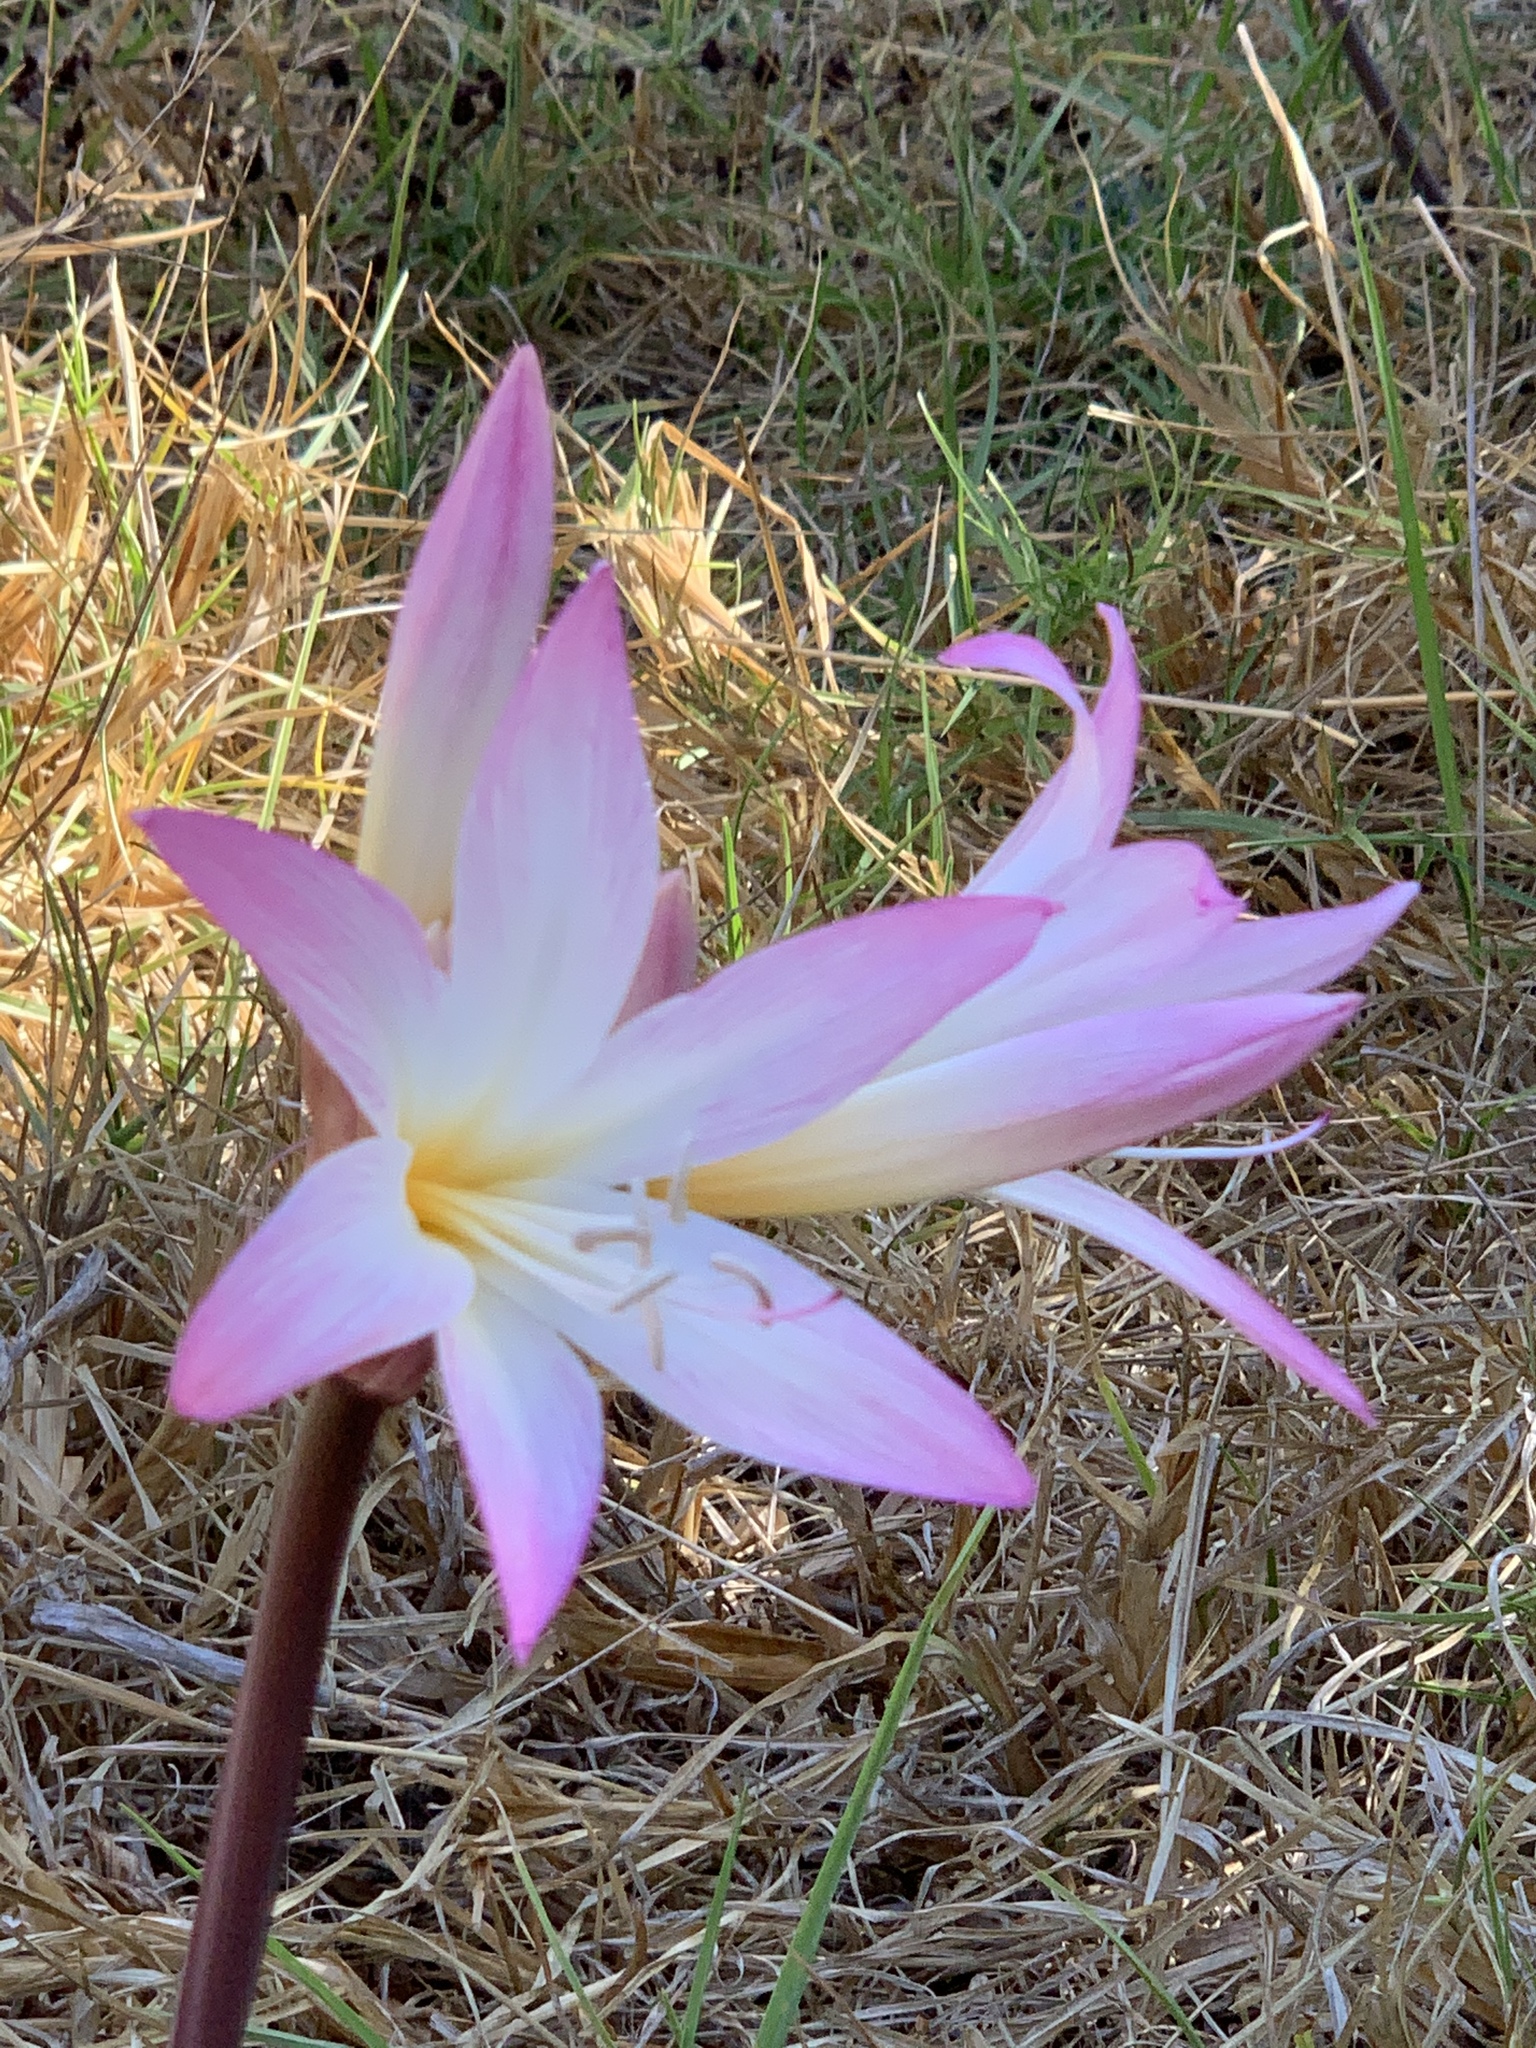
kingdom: Plantae
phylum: Tracheophyta
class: Liliopsida
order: Asparagales
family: Amaryllidaceae
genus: Amaryllis
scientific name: Amaryllis belladonna
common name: Jersey lily
